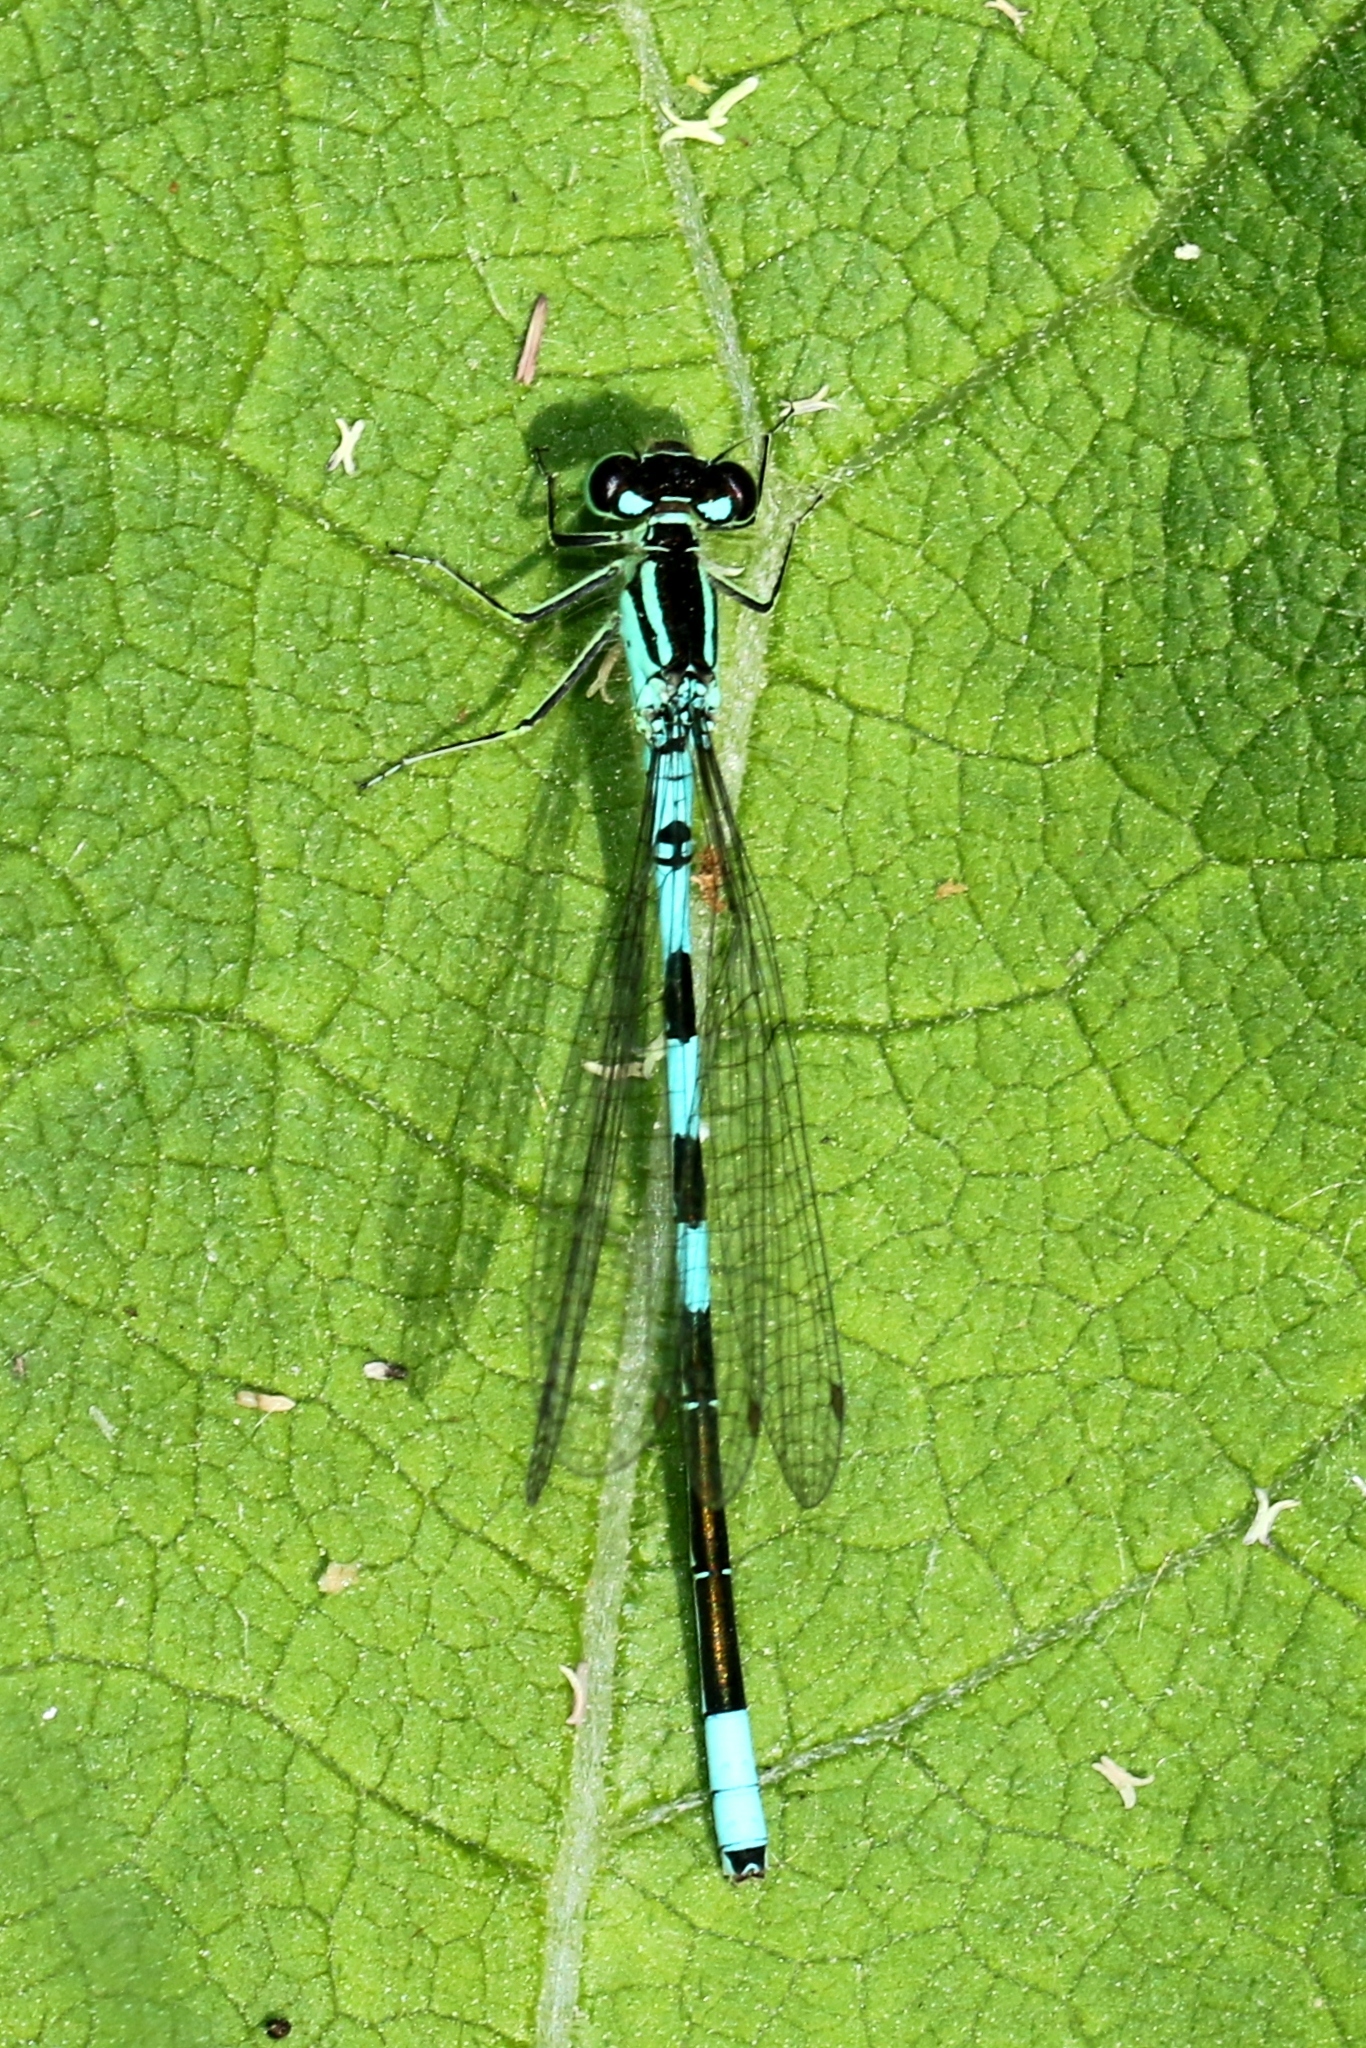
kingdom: Animalia
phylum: Arthropoda
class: Insecta
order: Odonata
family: Coenagrionidae
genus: Coenagrion
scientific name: Coenagrion resolutum
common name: Taiga bluet
